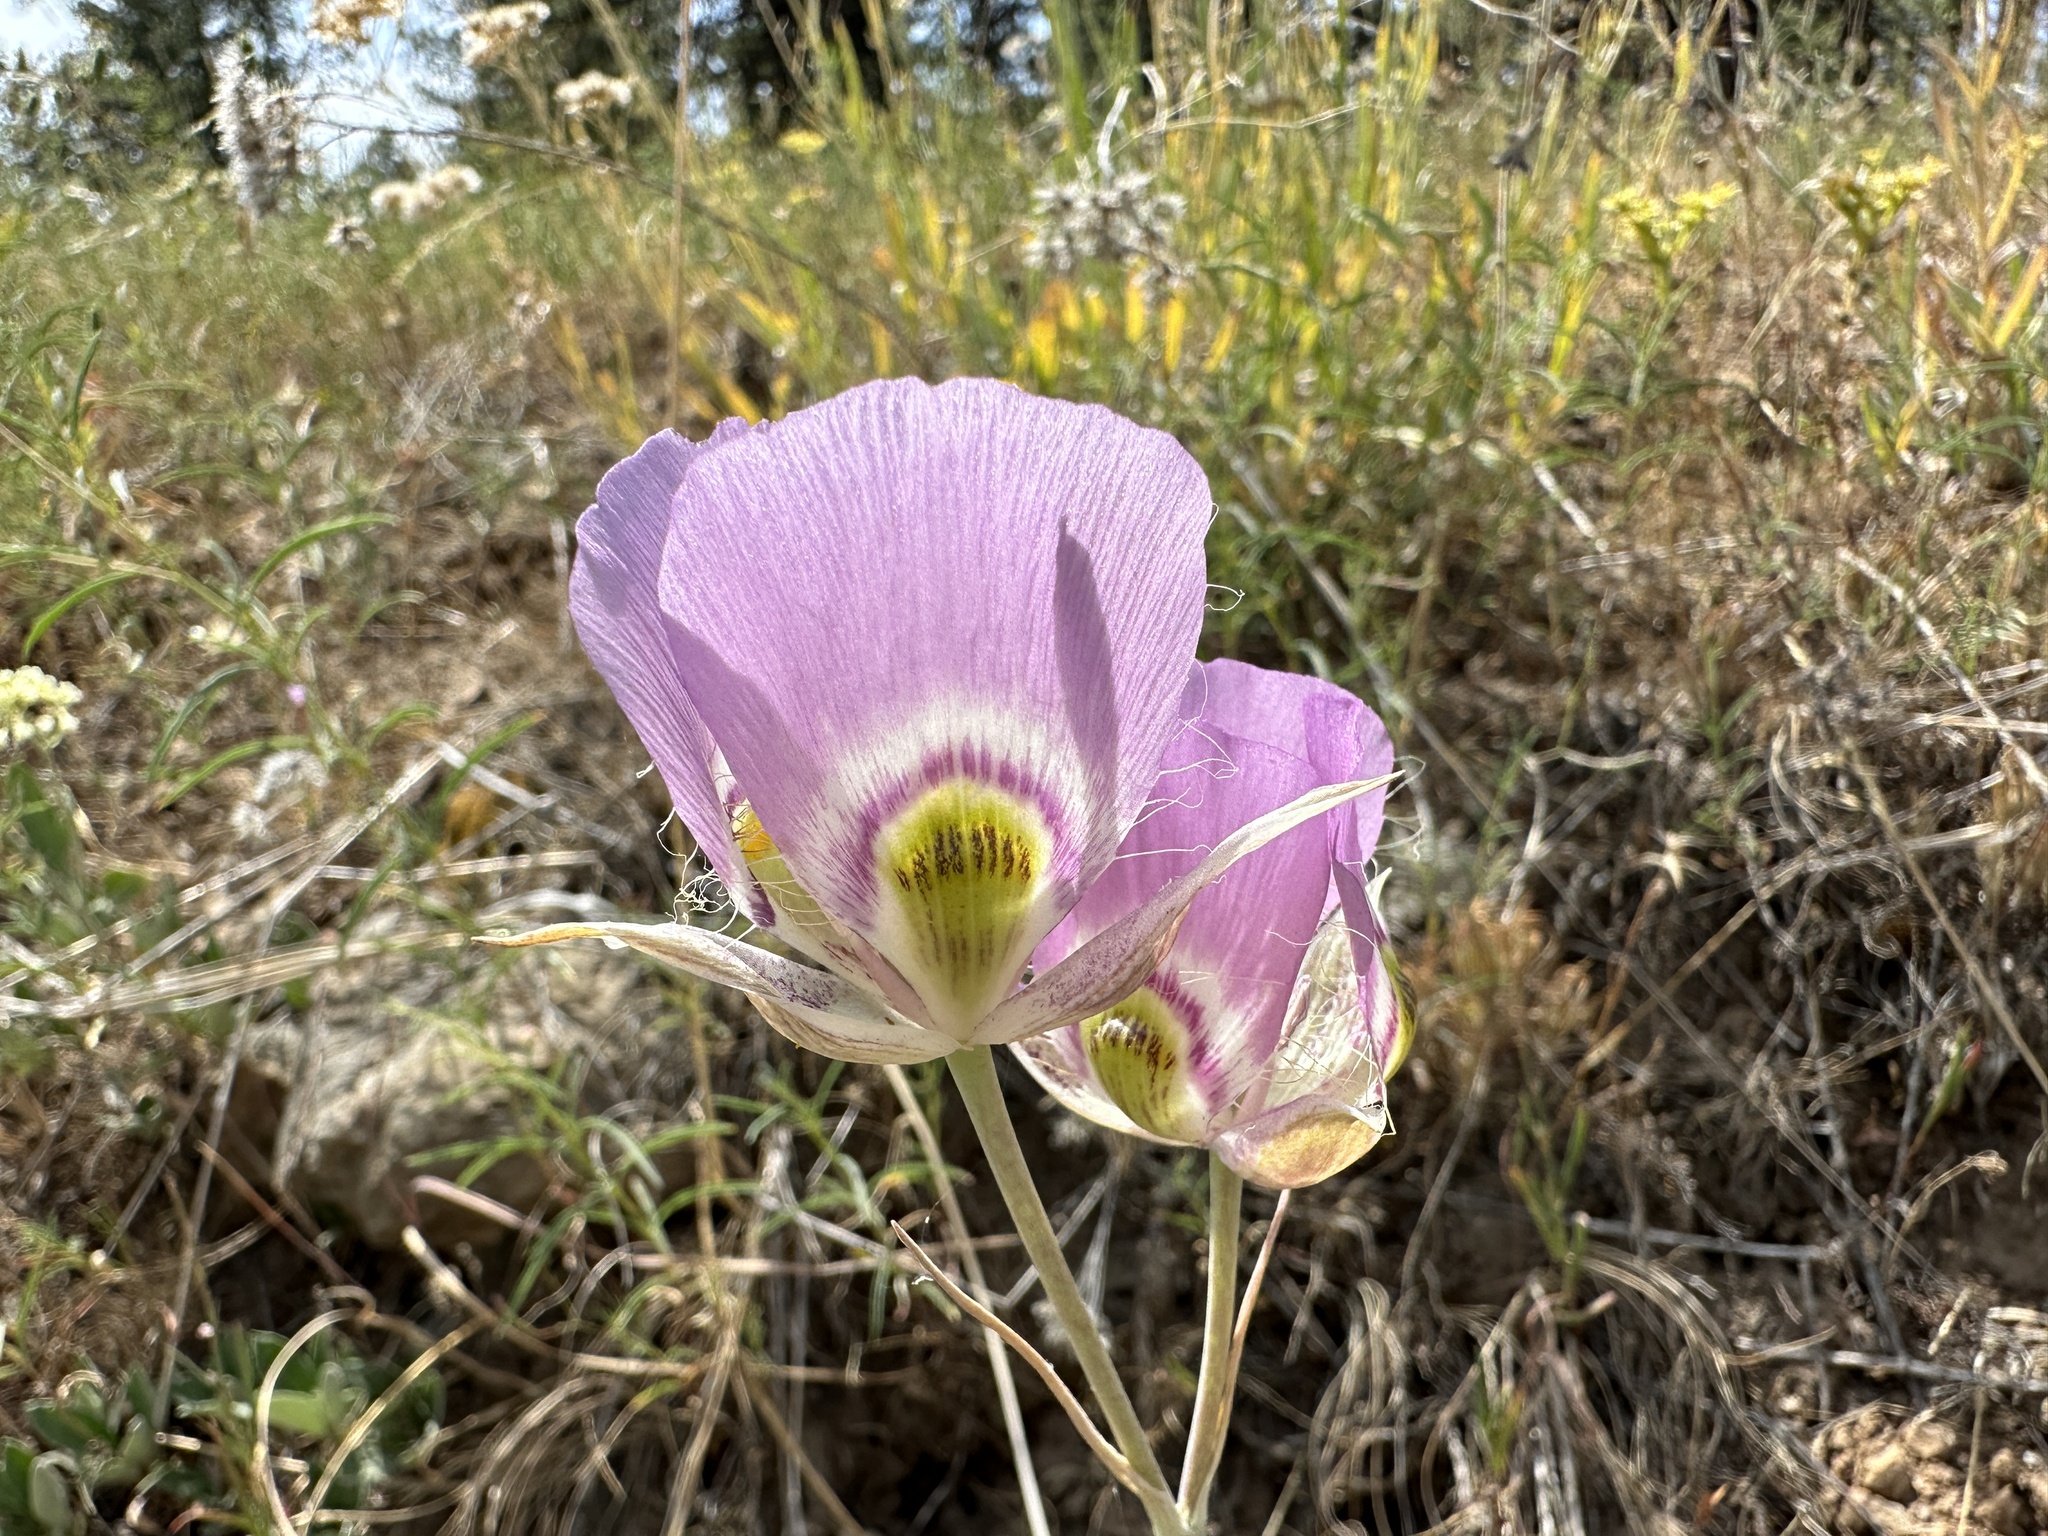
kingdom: Plantae
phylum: Tracheophyta
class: Liliopsida
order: Liliales
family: Liliaceae
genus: Calochortus
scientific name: Calochortus nitidus
